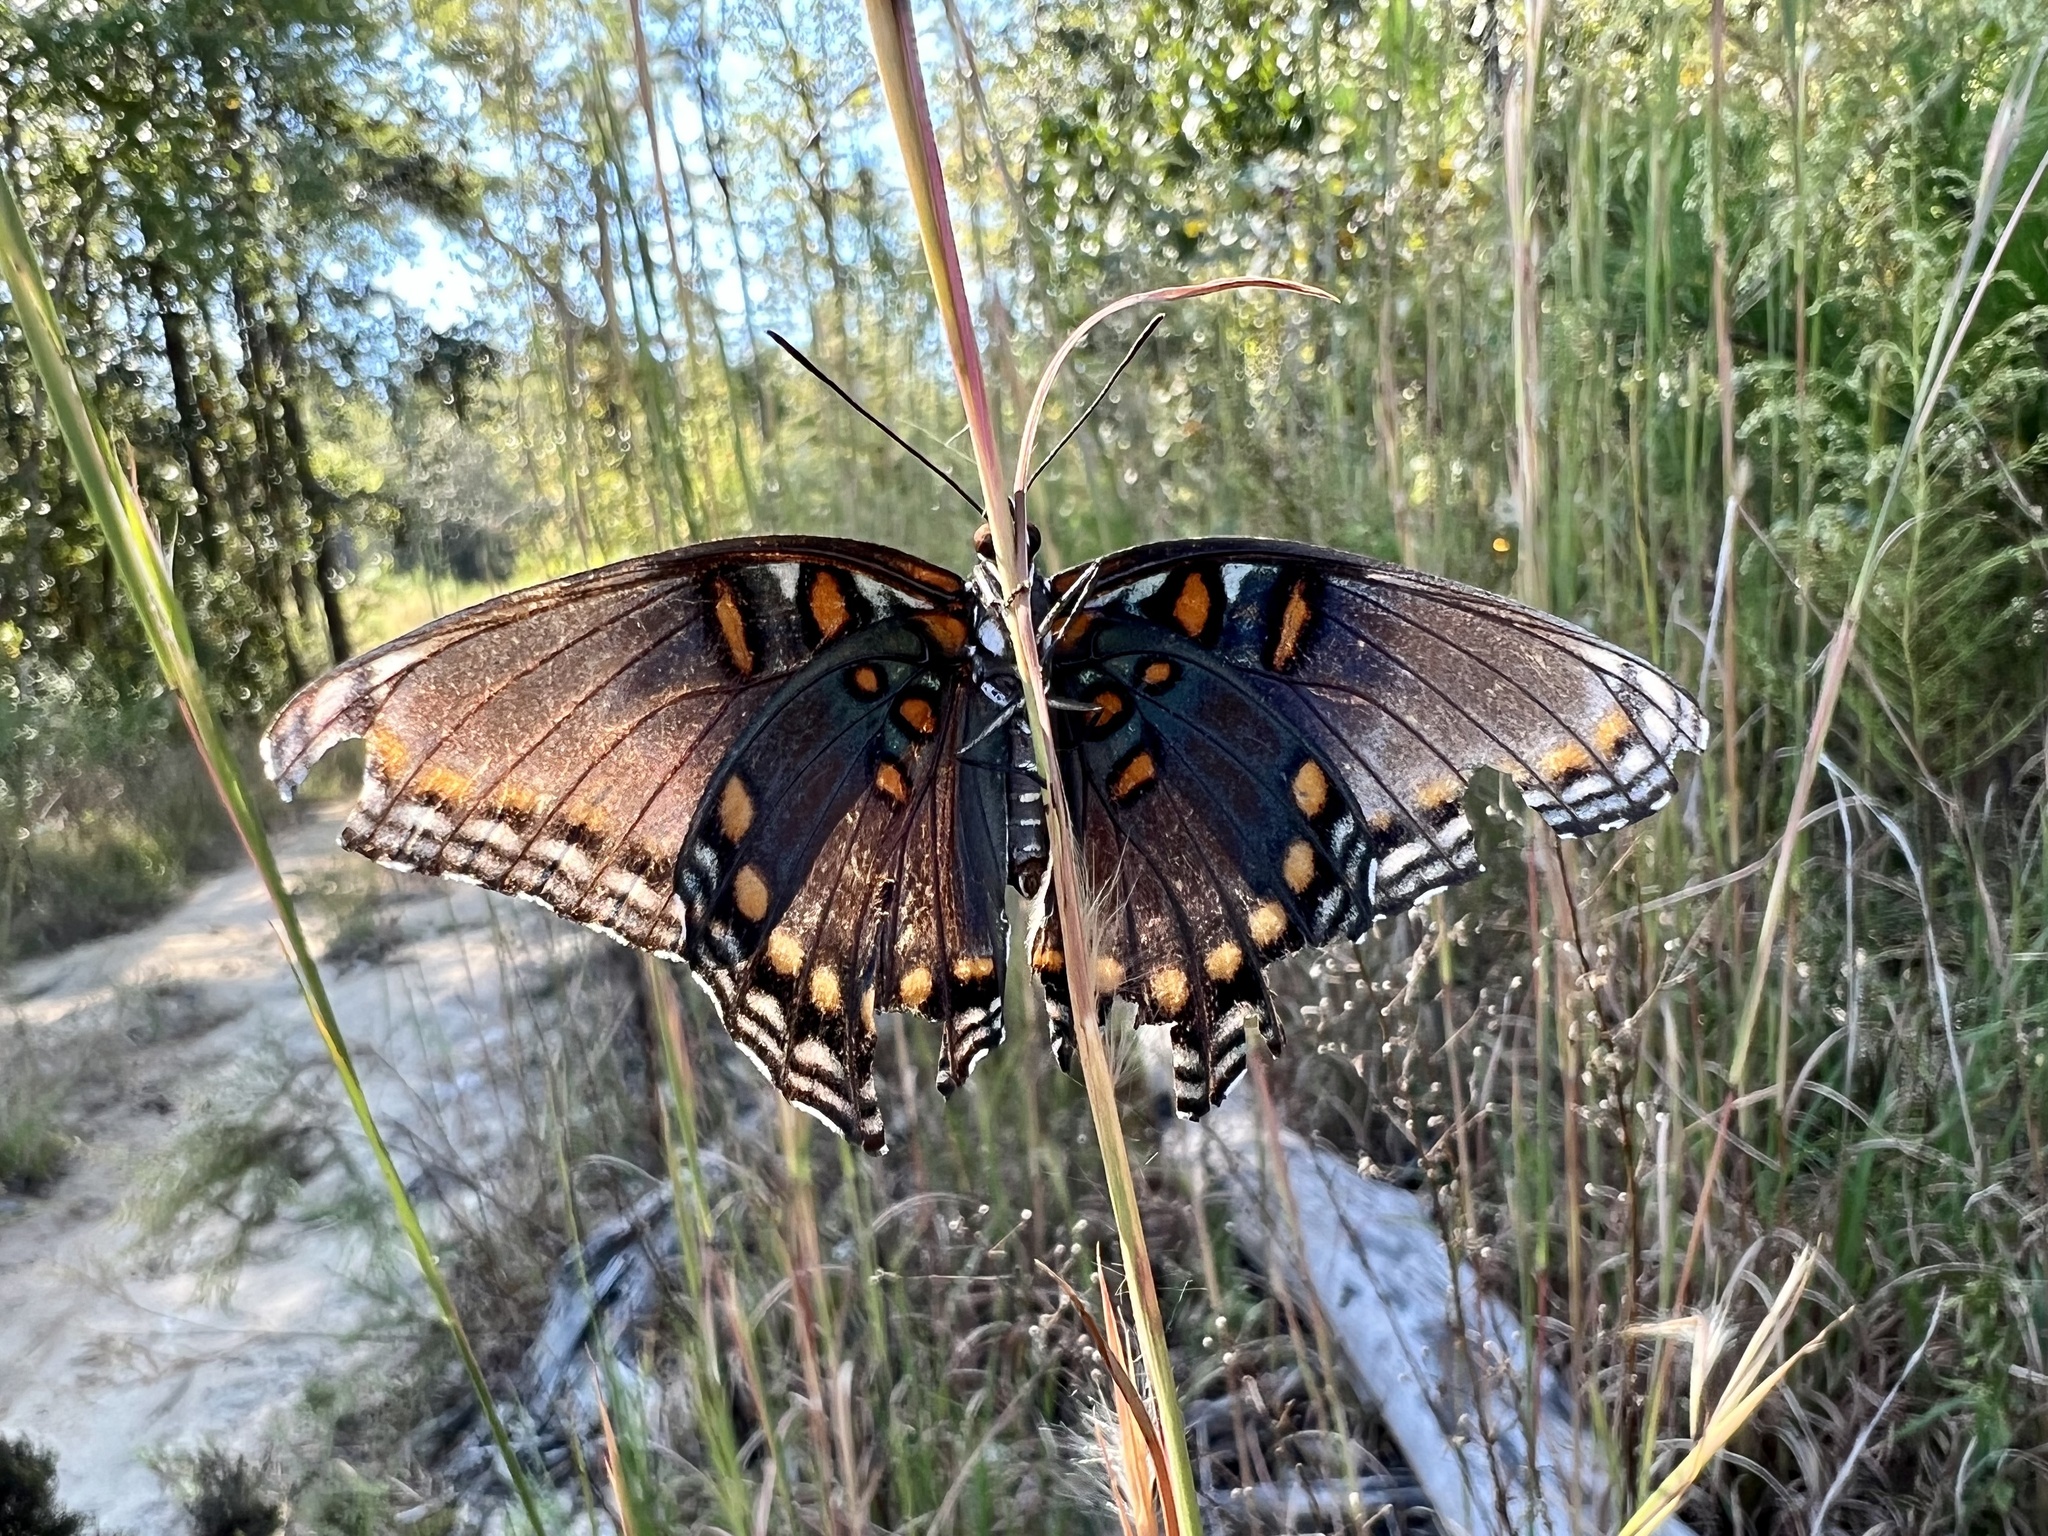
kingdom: Animalia
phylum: Arthropoda
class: Insecta
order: Lepidoptera
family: Nymphalidae
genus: Limenitis
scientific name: Limenitis astyanax
